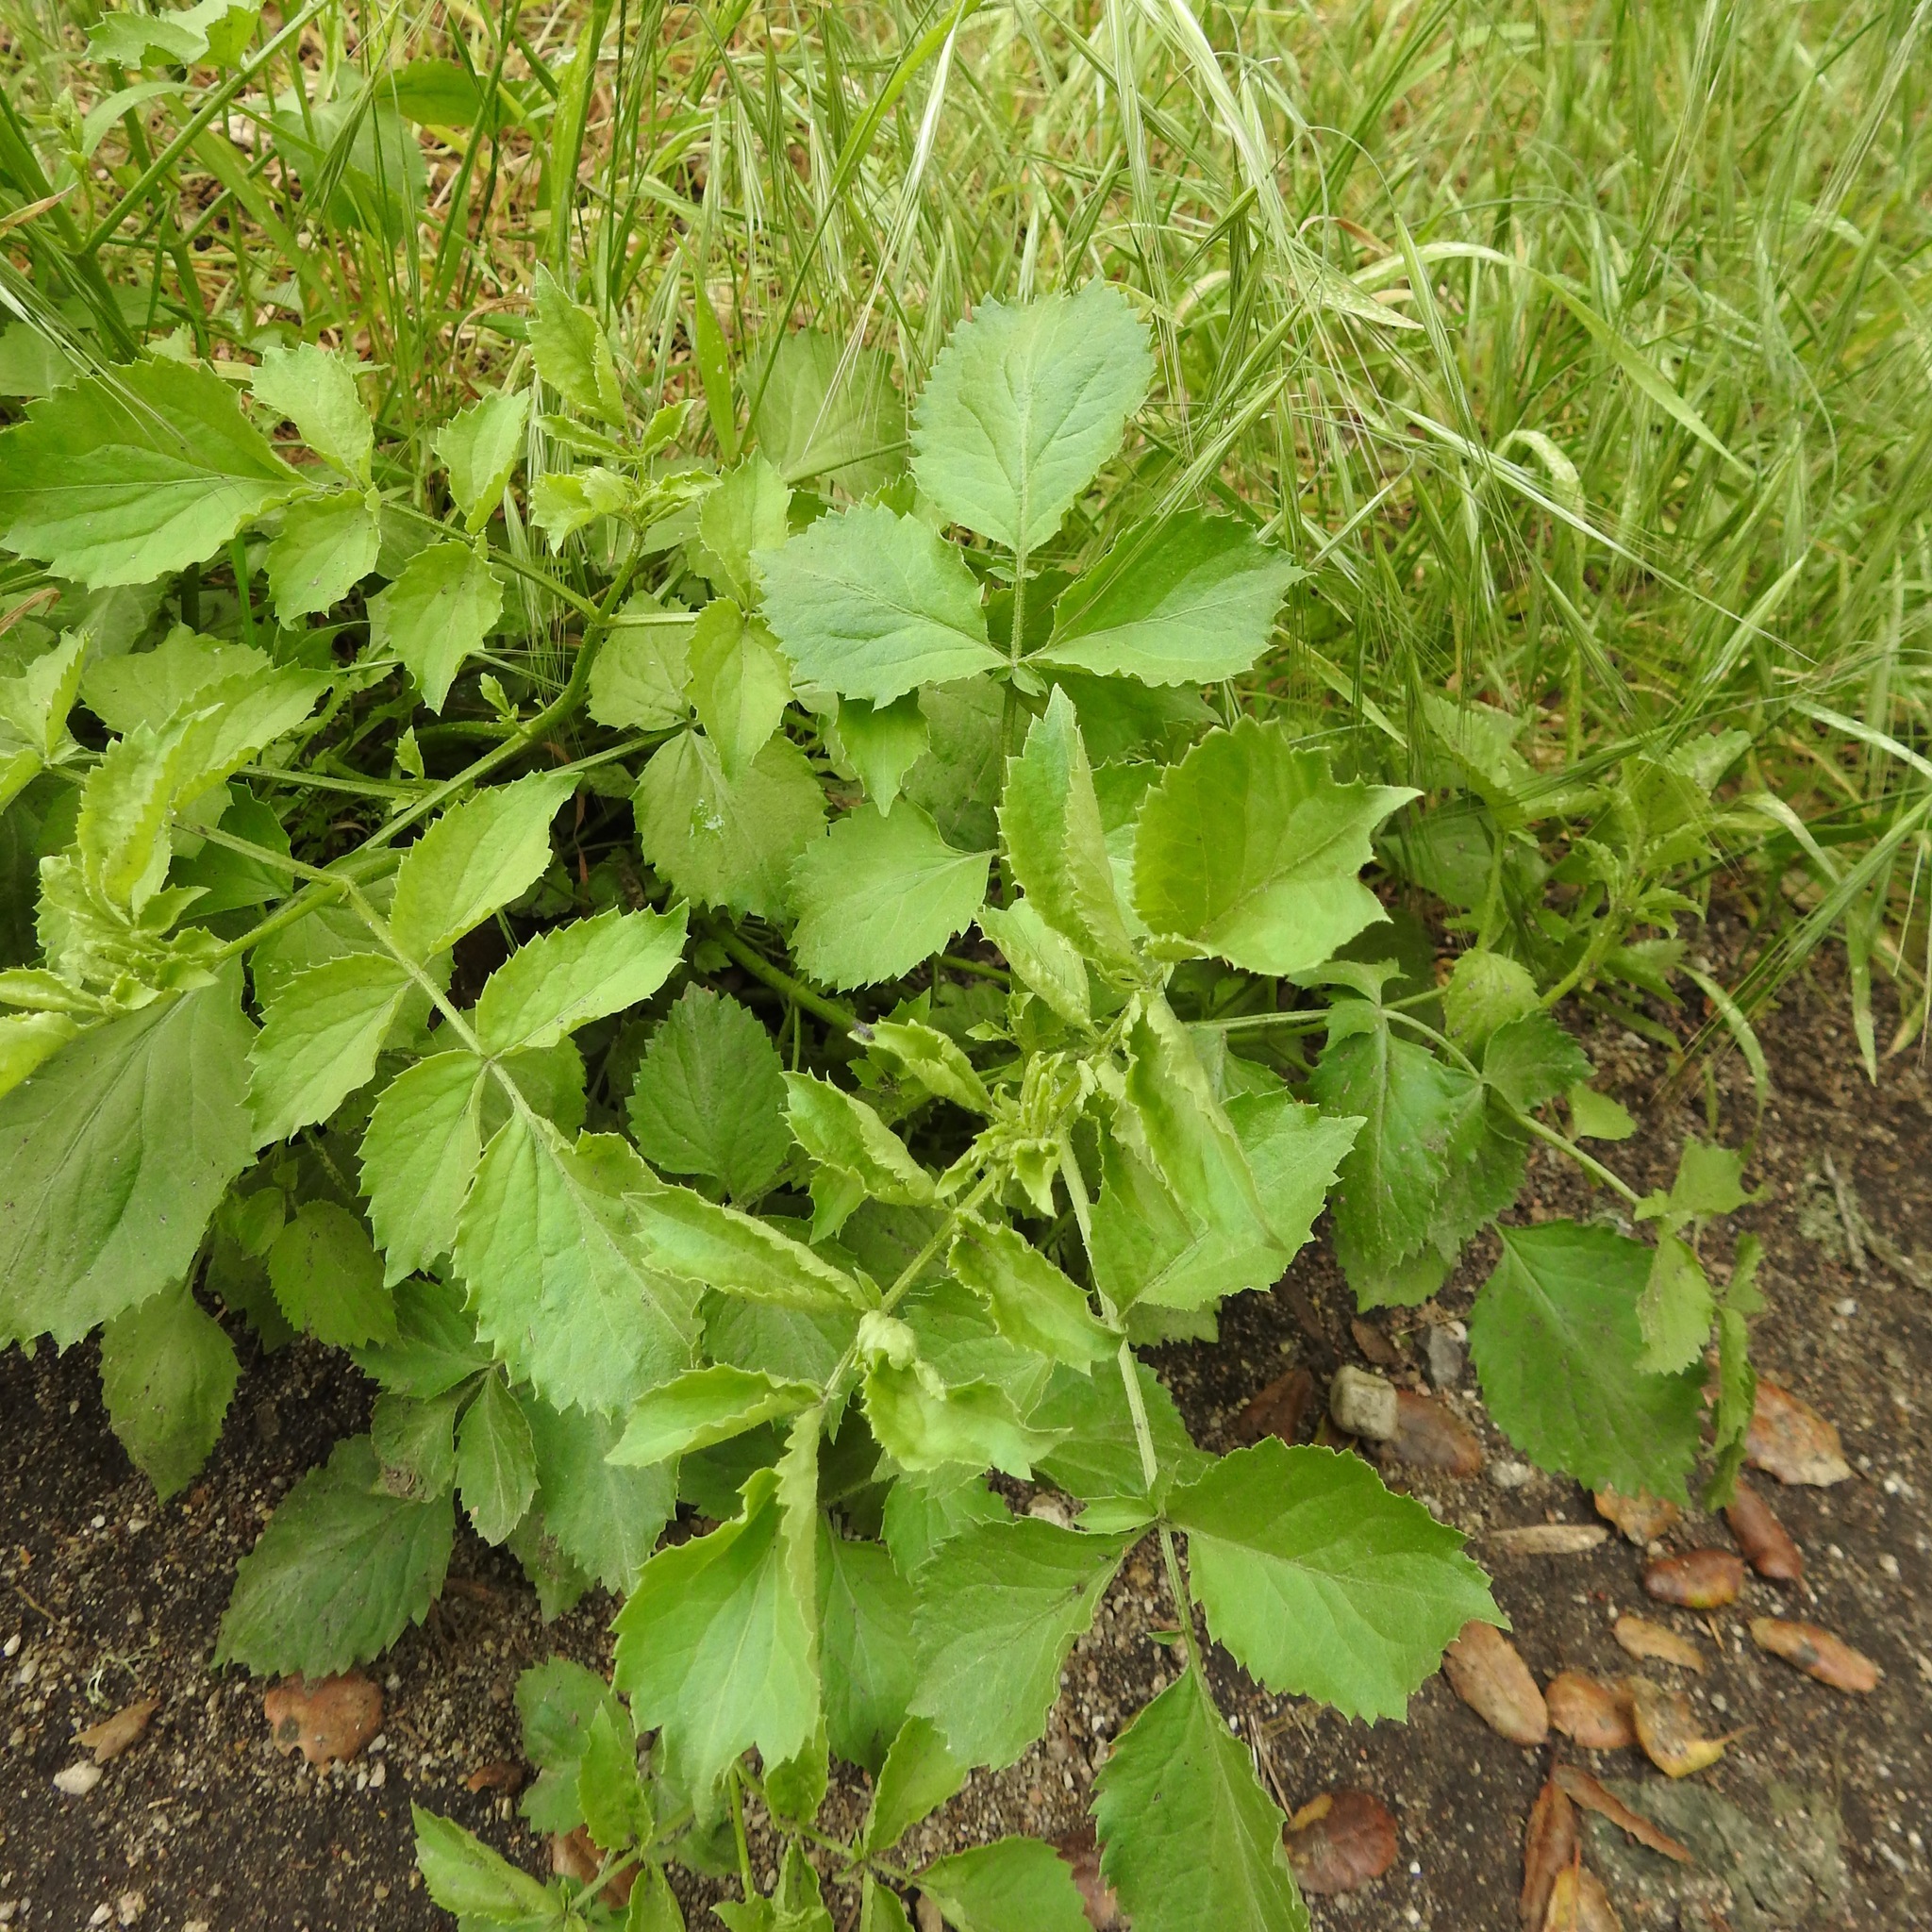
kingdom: Plantae
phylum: Tracheophyta
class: Magnoliopsida
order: Dipsacales
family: Viburnaceae
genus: Sambucus
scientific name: Sambucus cerulea
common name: Blue elder
